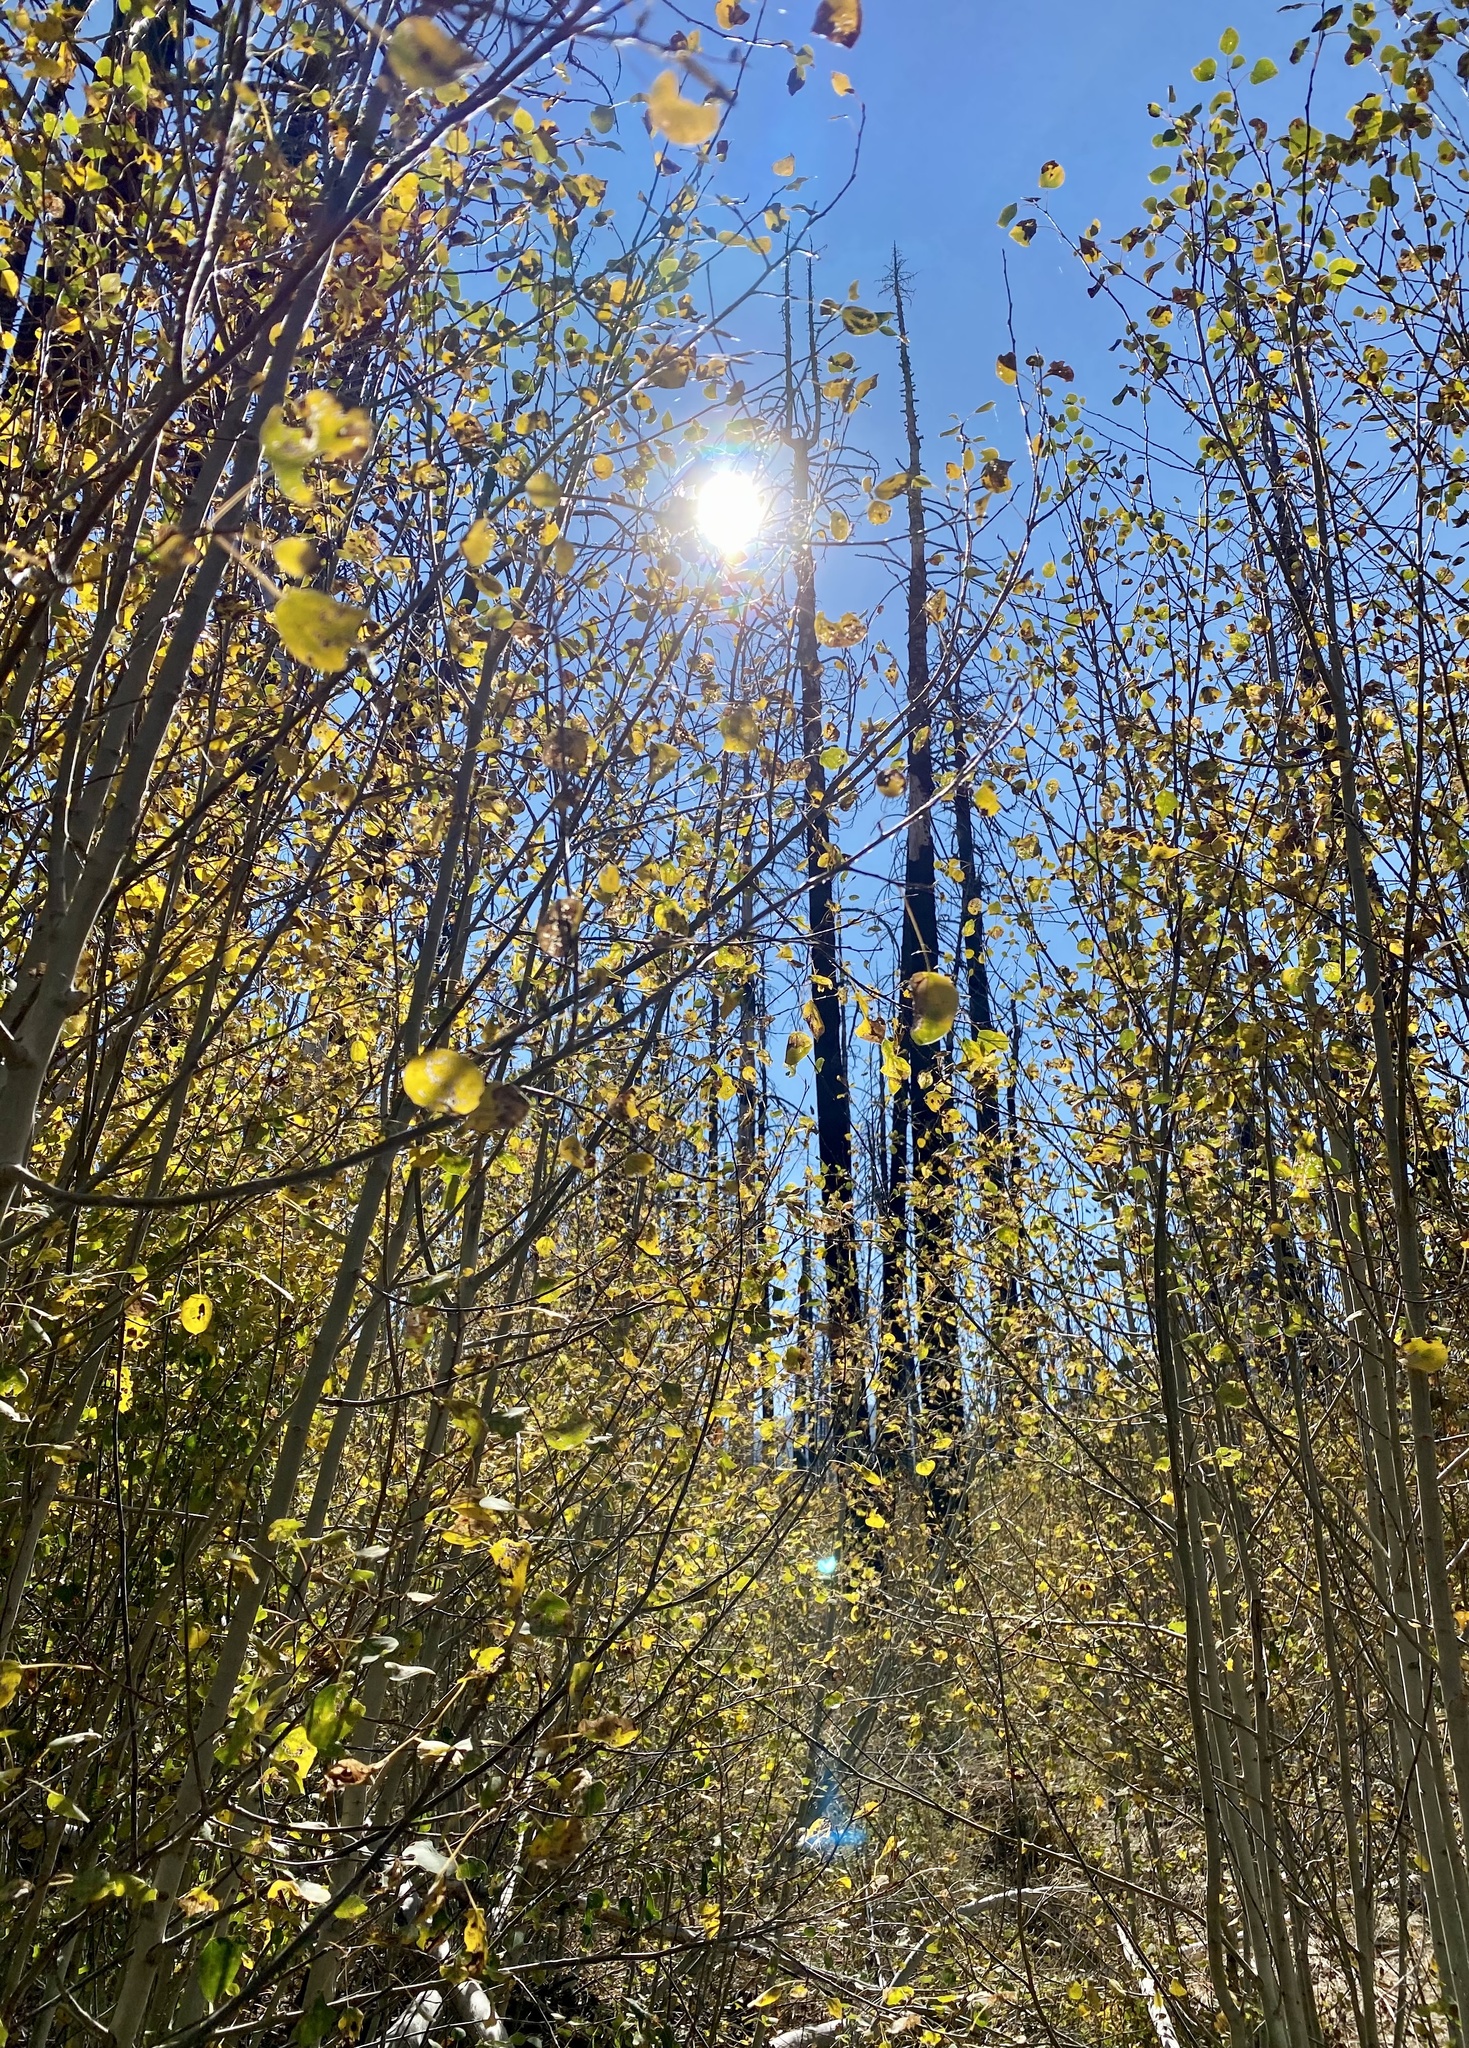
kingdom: Plantae
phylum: Tracheophyta
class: Magnoliopsida
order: Malpighiales
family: Salicaceae
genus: Populus
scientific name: Populus tremuloides
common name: Quaking aspen
